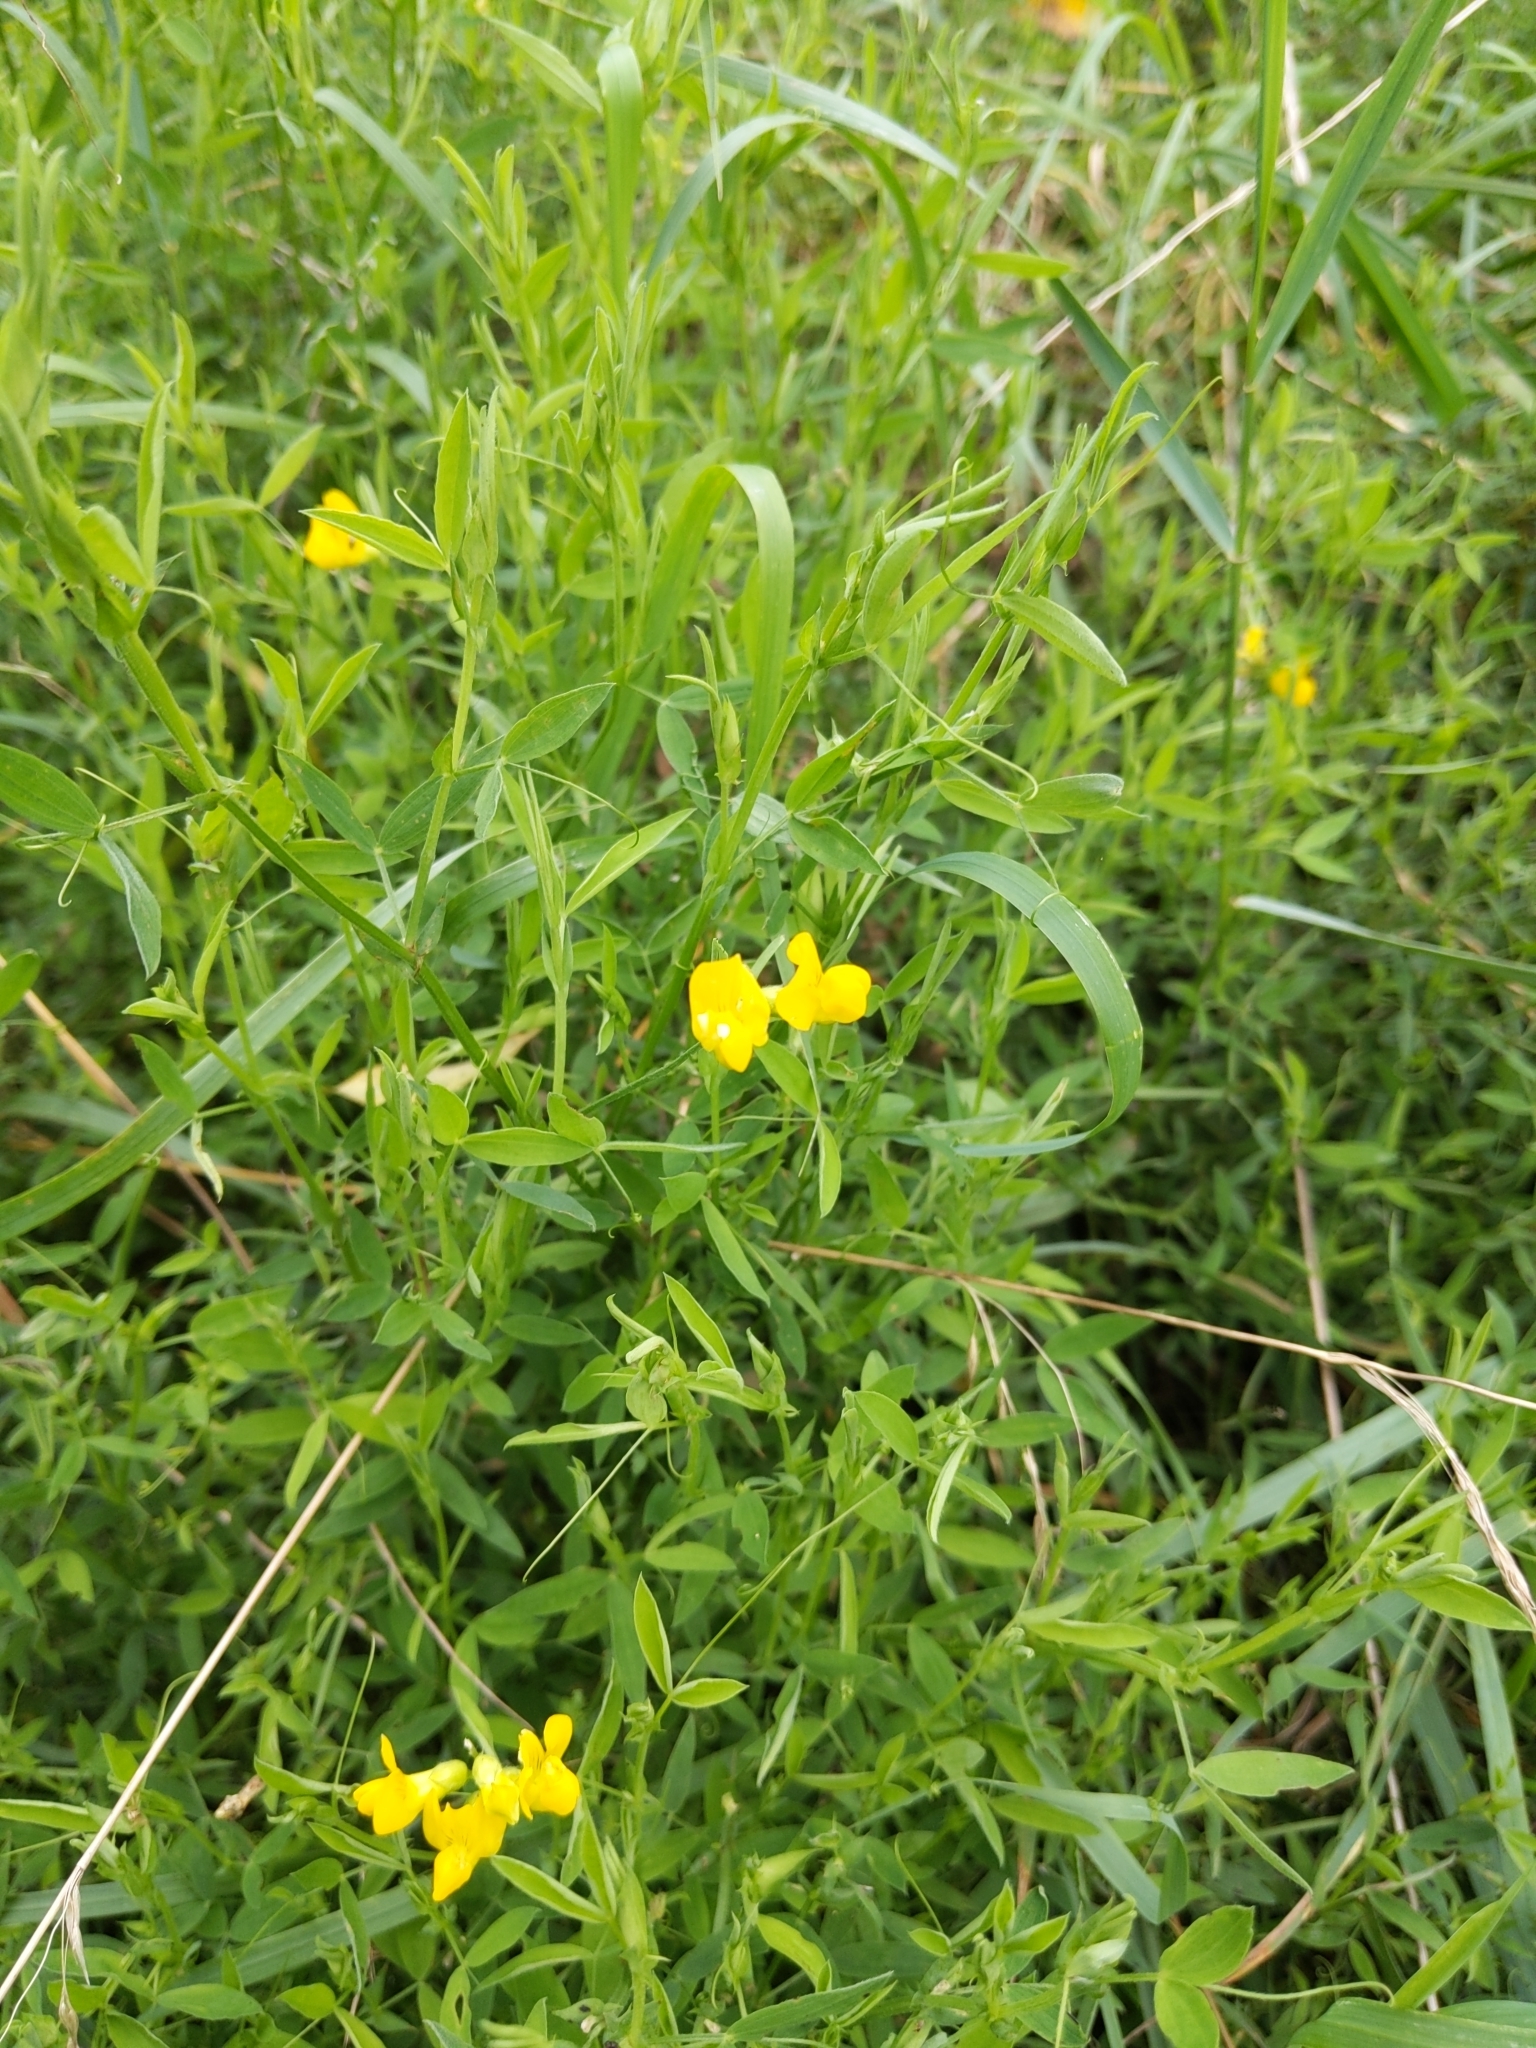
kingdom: Plantae
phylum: Tracheophyta
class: Magnoliopsida
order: Fabales
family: Fabaceae
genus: Lathyrus
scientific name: Lathyrus pratensis
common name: Meadow vetchling
